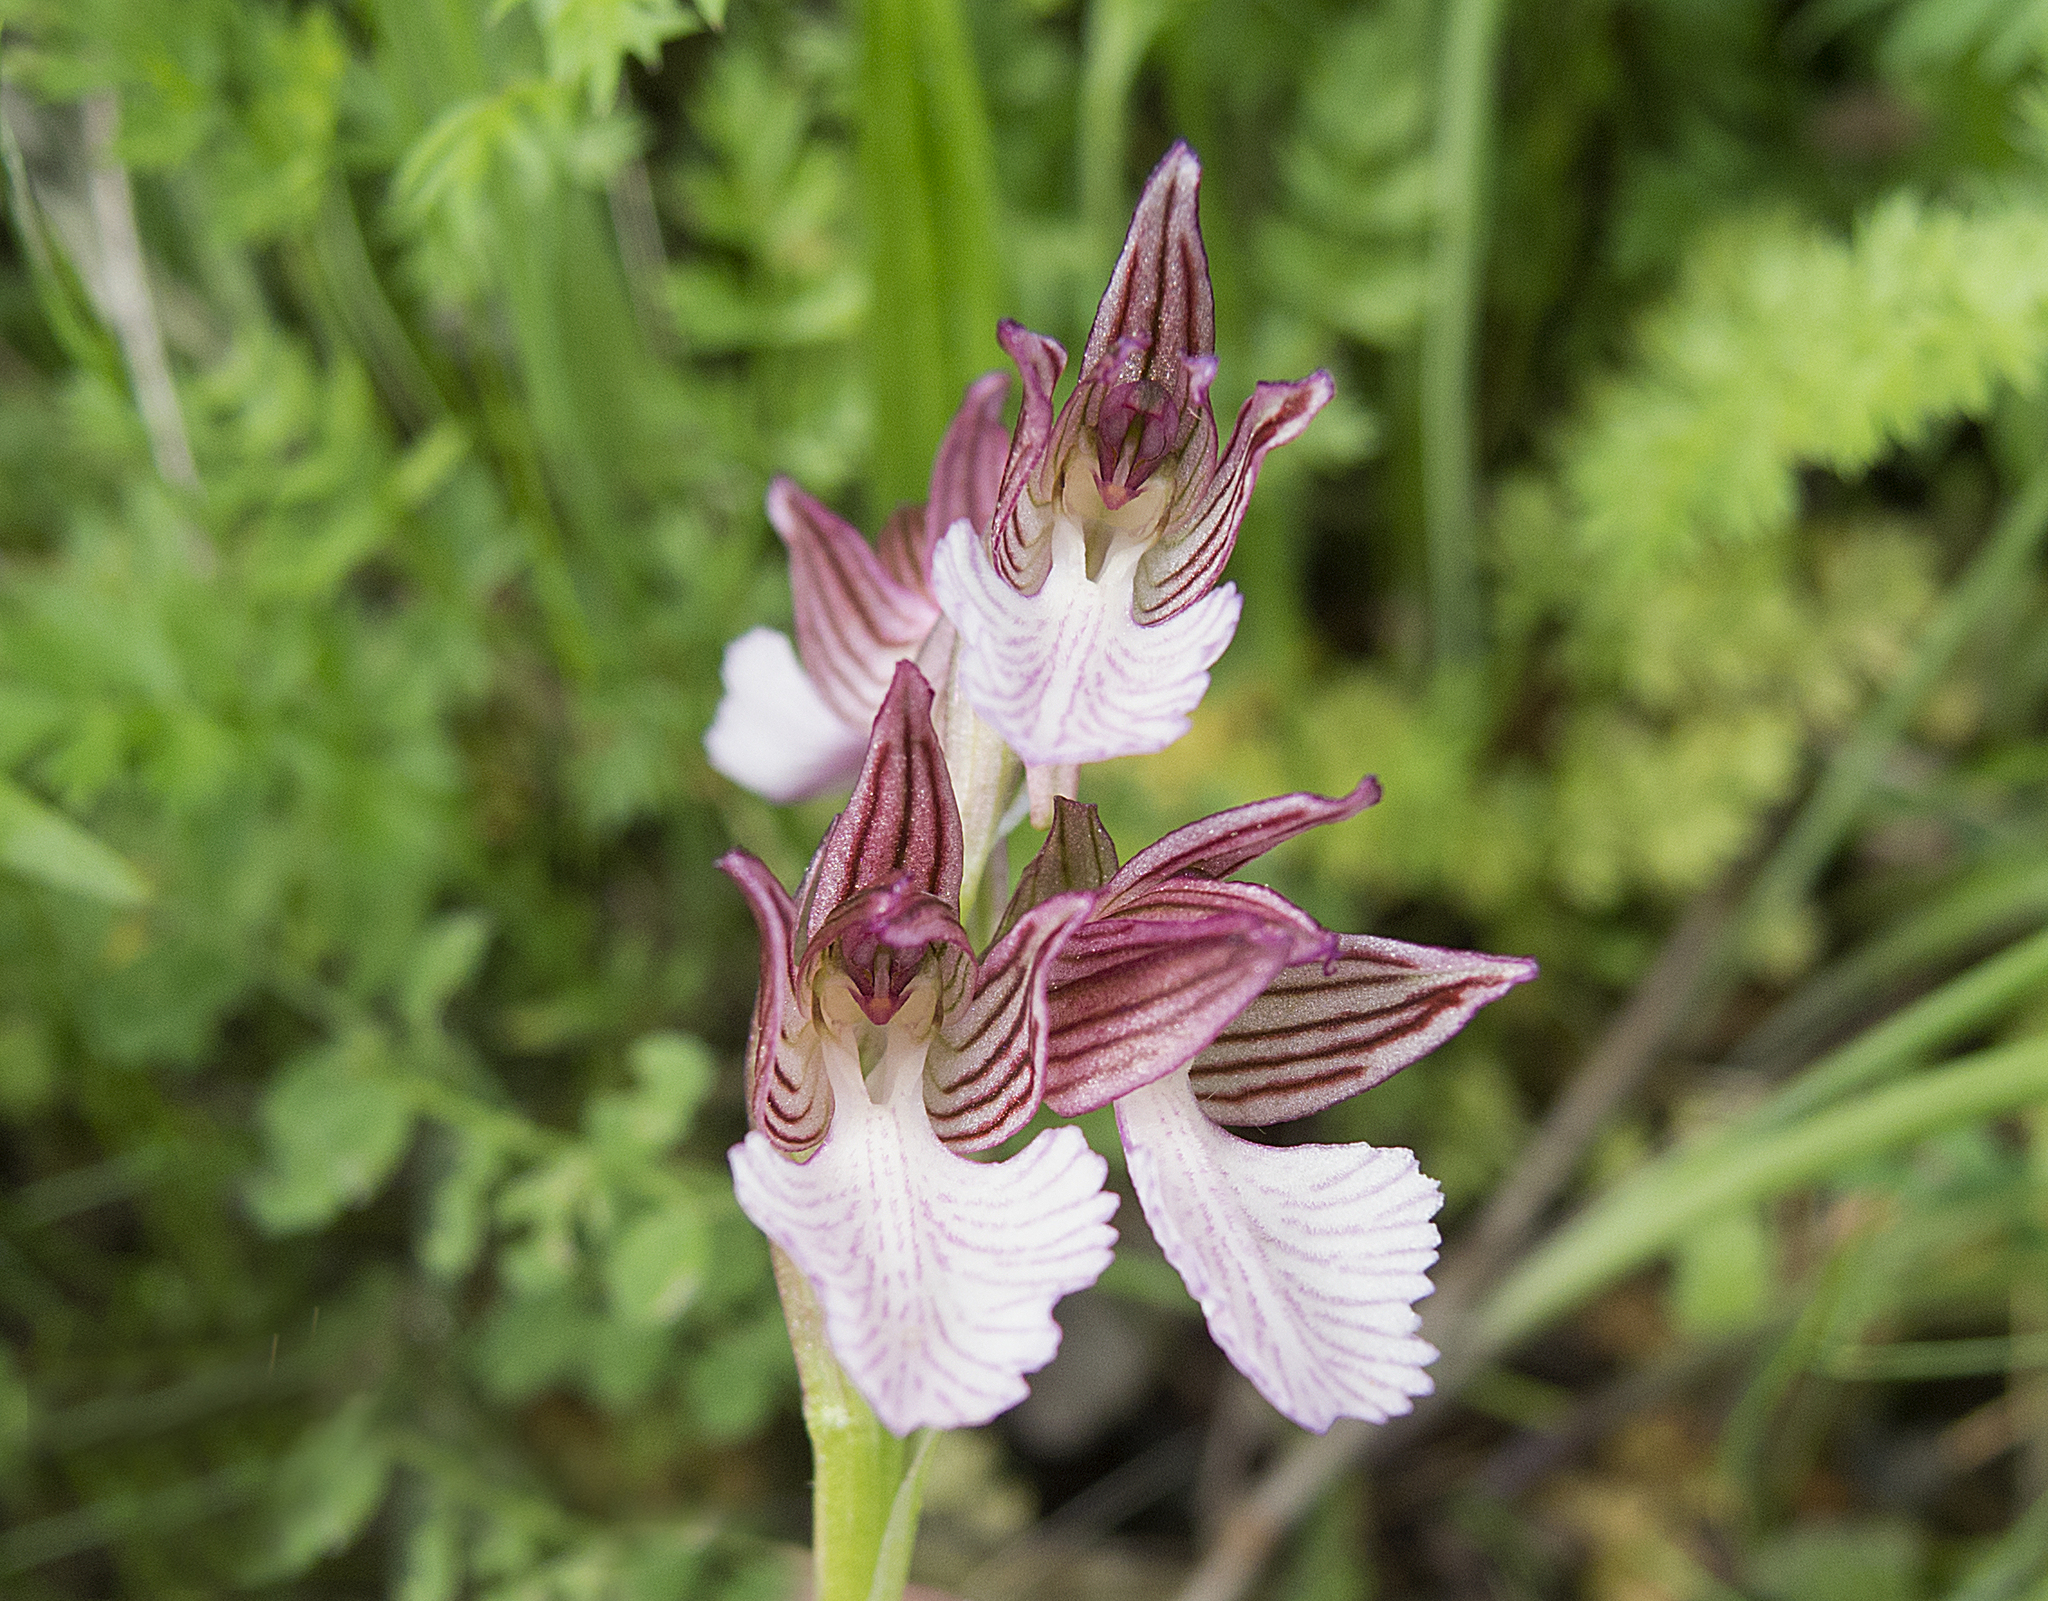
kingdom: Plantae
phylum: Tracheophyta
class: Liliopsida
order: Asparagales
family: Orchidaceae
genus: Anacamptis
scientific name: Anacamptis papilionacea
